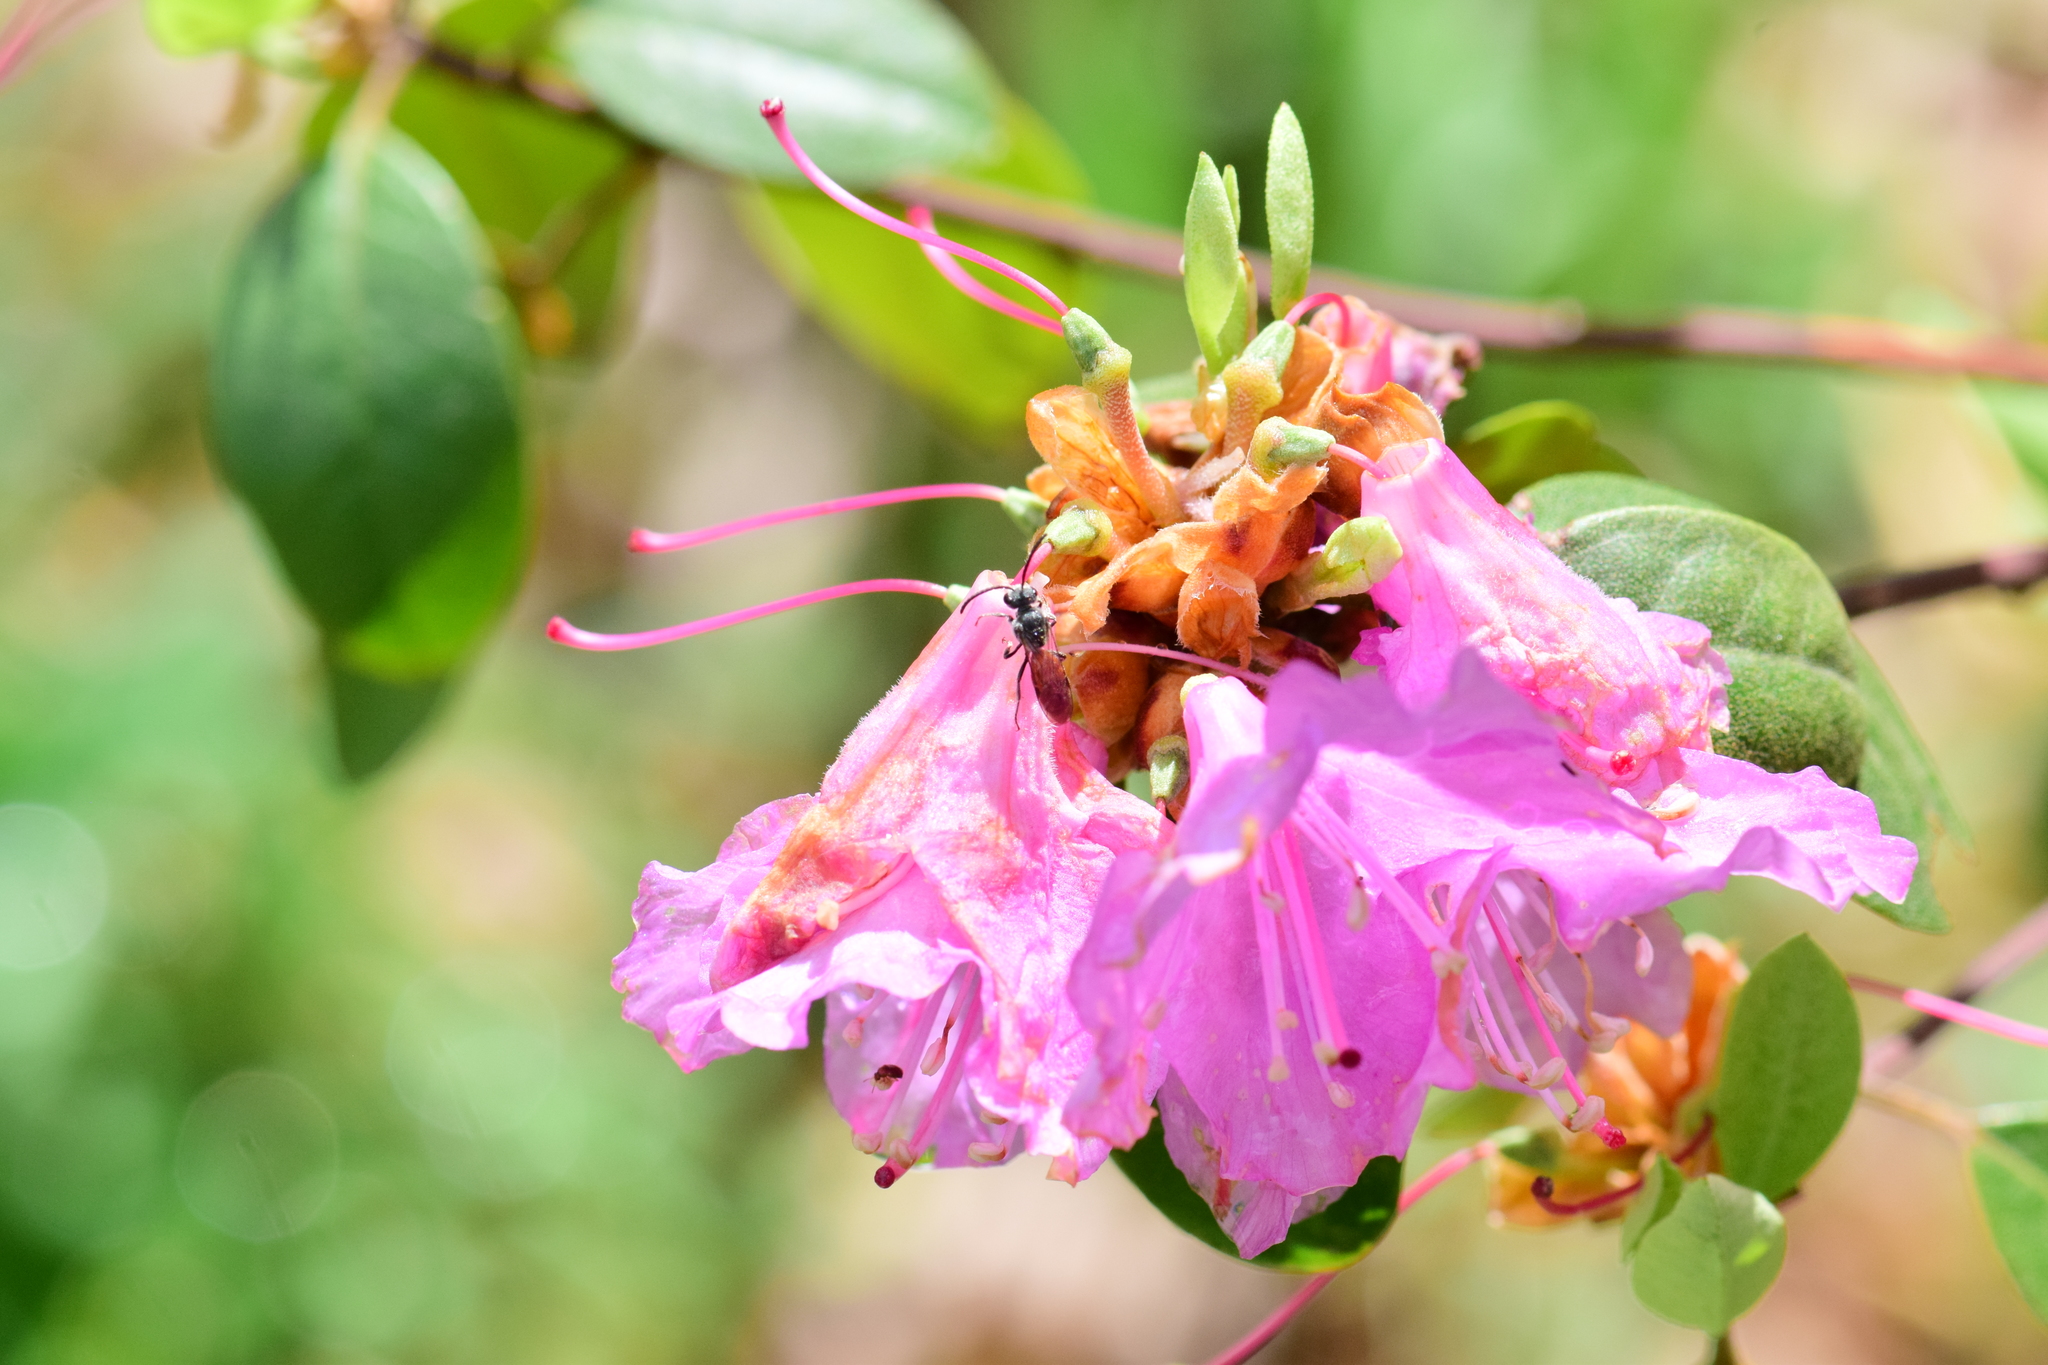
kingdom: Animalia
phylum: Arthropoda
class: Insecta
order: Hymenoptera
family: Halictidae
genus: Sphecodes
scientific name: Sphecodes ranunculi
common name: Buttercup cuckoo sweat bee
